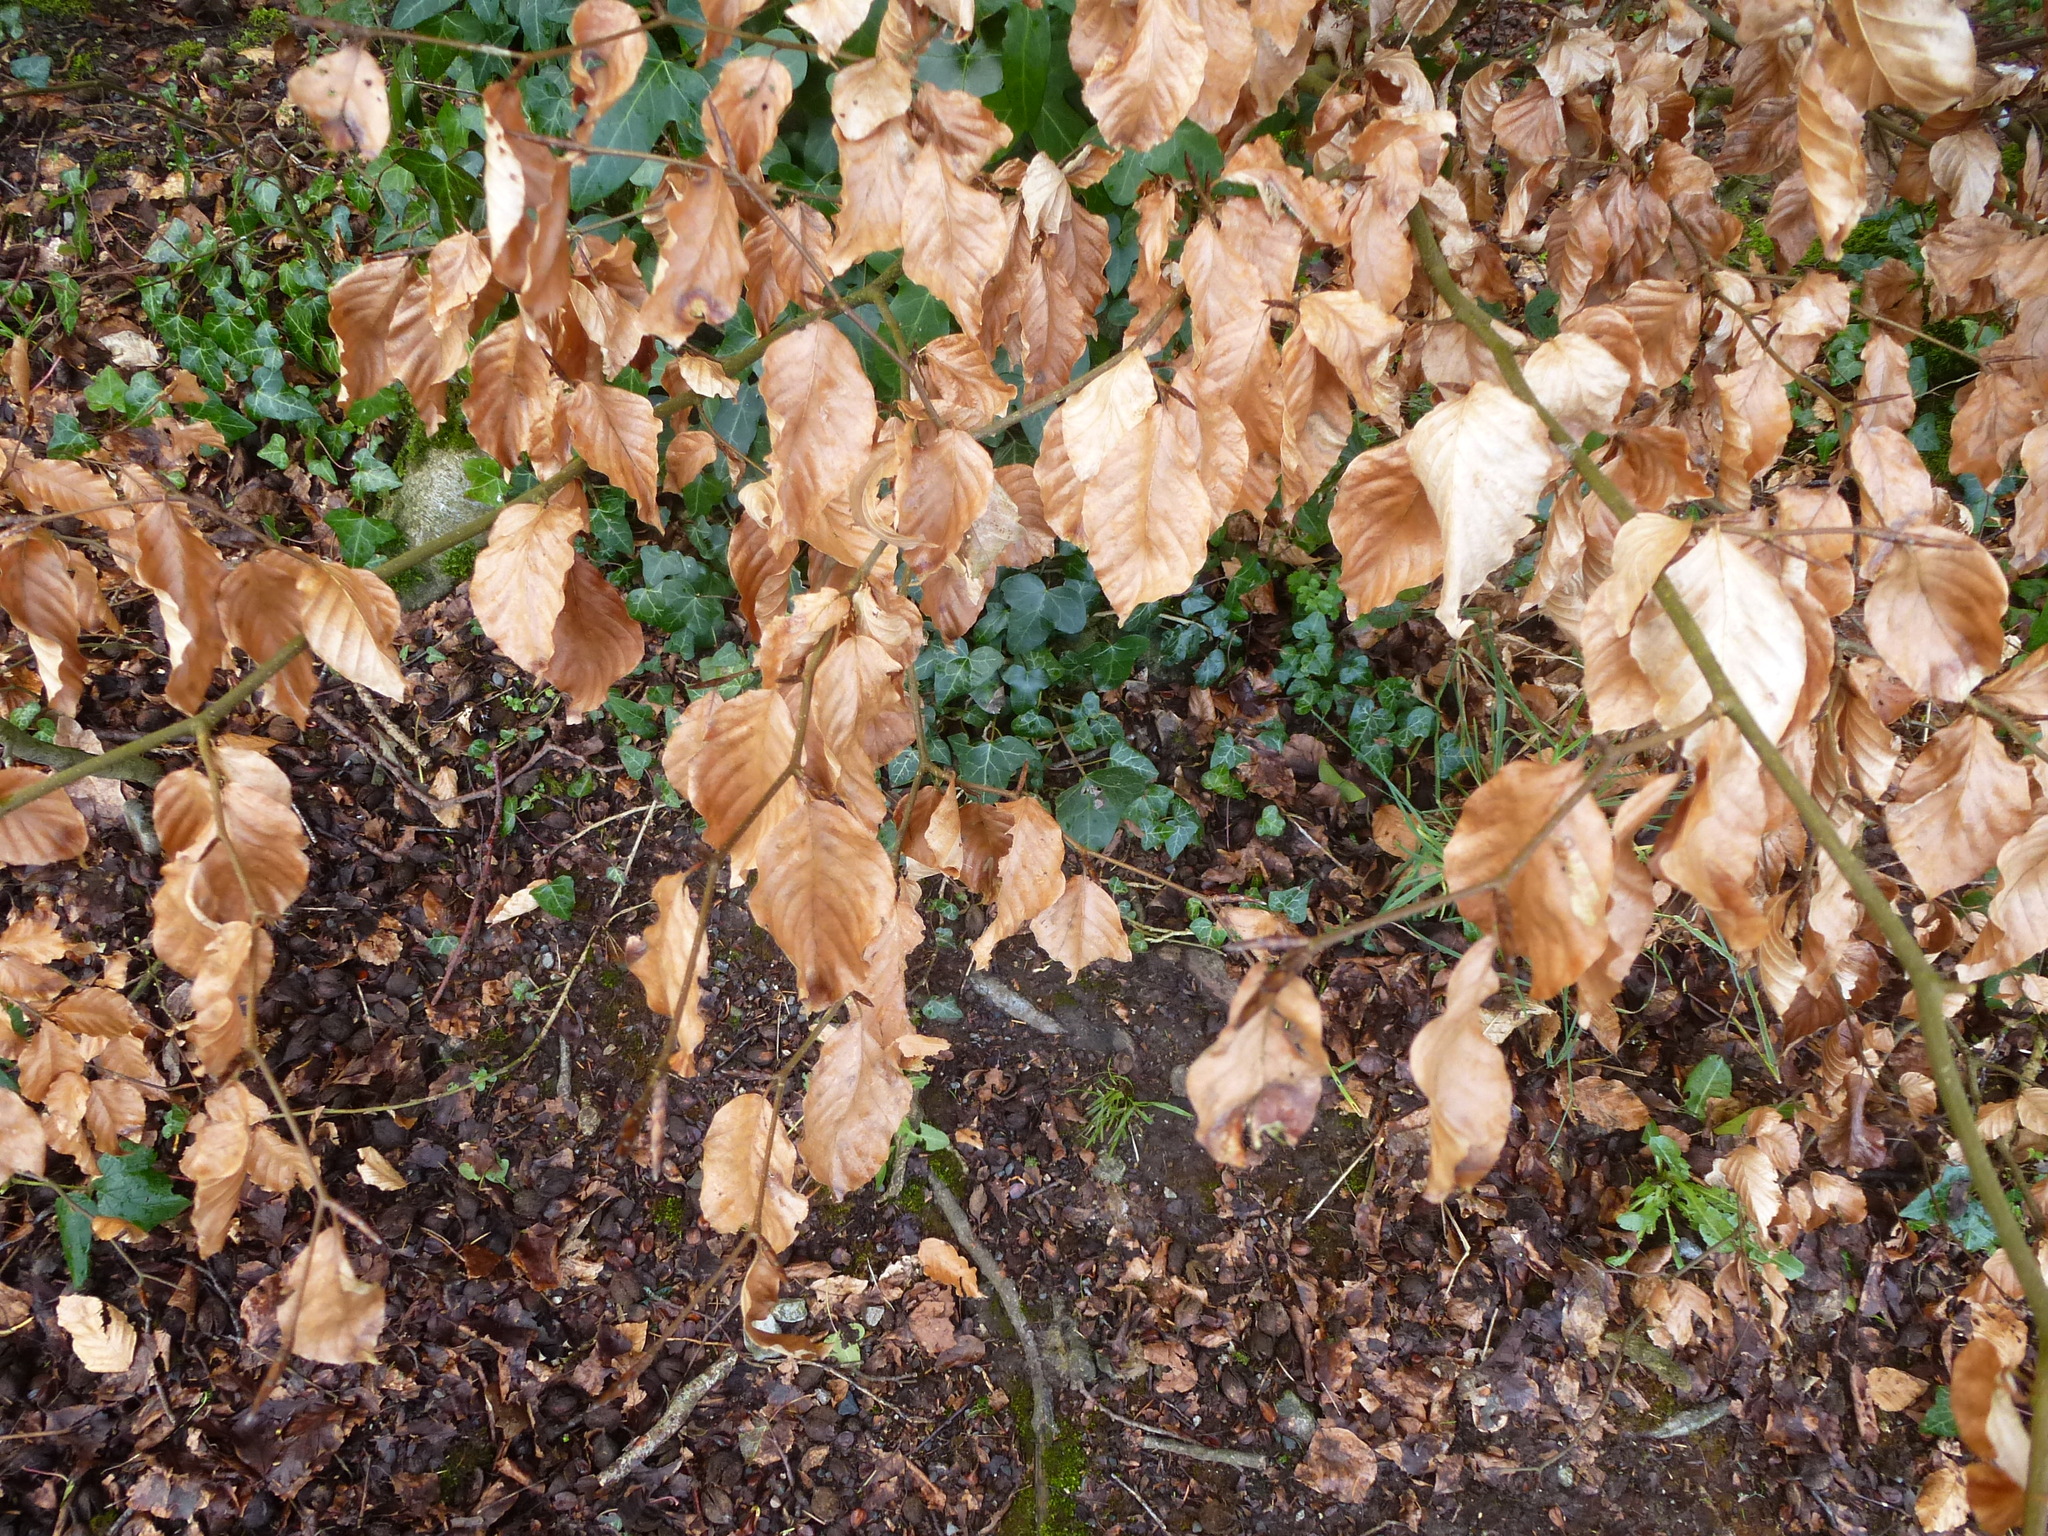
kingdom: Plantae
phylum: Tracheophyta
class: Magnoliopsida
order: Fagales
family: Fagaceae
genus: Fagus
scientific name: Fagus sylvatica
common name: Beech
